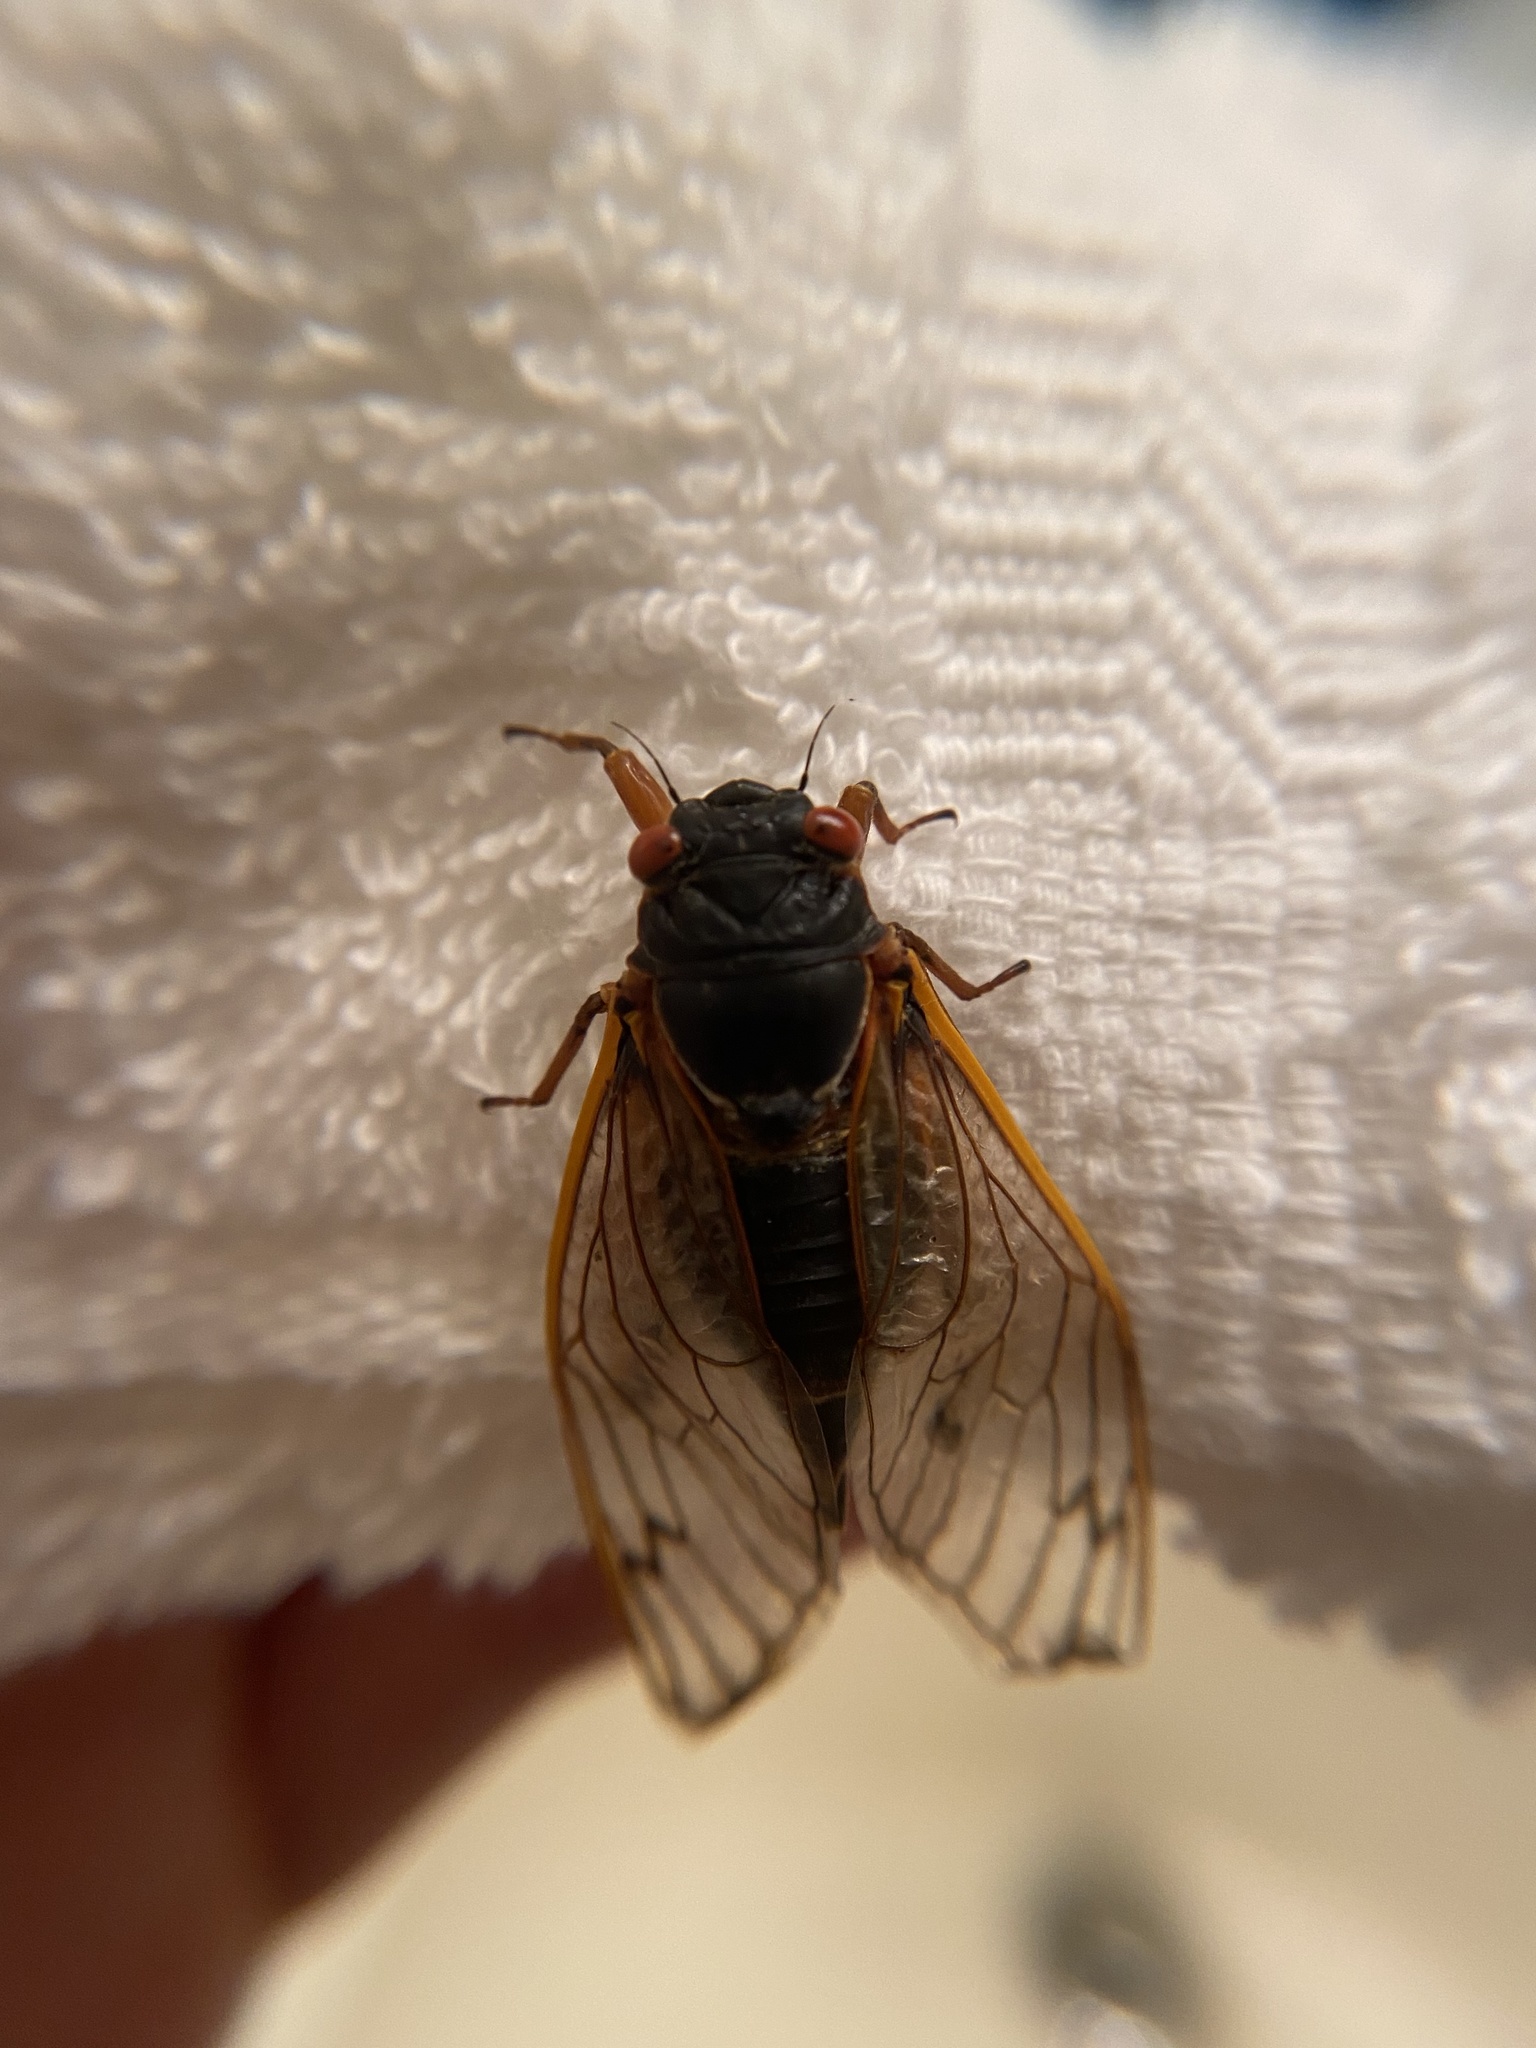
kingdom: Animalia
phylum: Arthropoda
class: Insecta
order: Hemiptera
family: Cicadidae
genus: Magicicada
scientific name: Magicicada septendecim
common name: Periodical cicada
